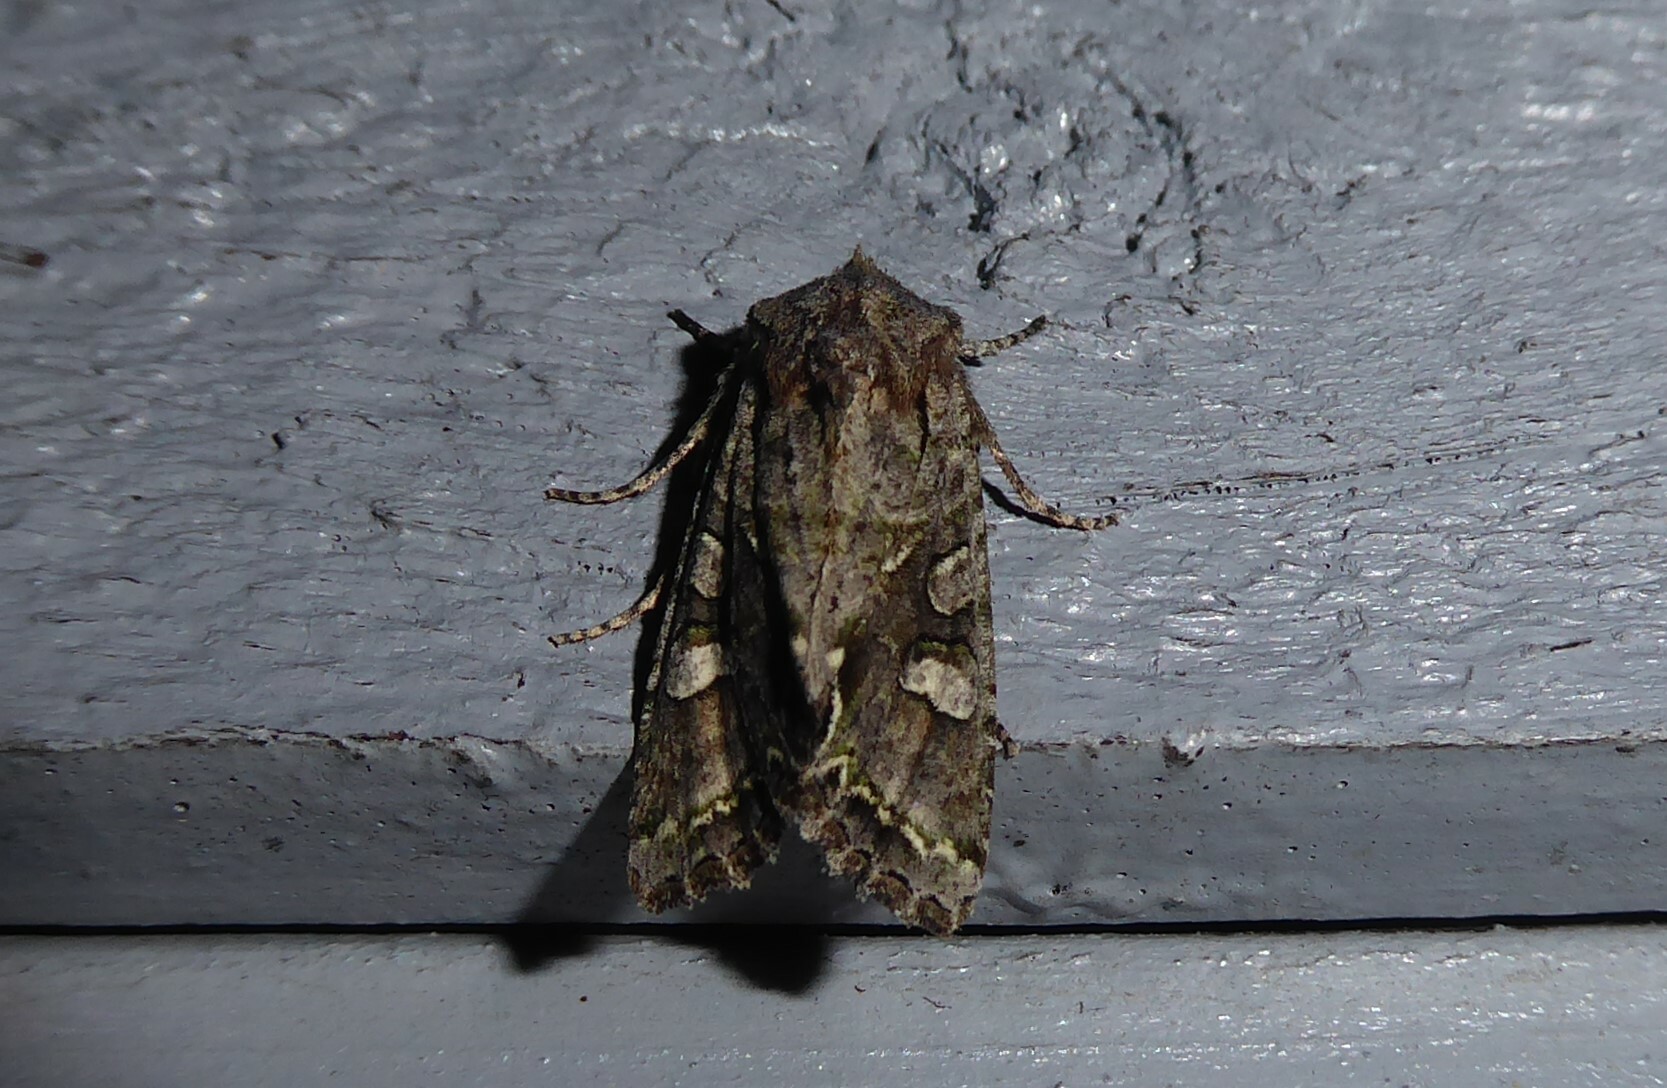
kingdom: Animalia
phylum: Arthropoda
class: Insecta
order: Lepidoptera
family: Noctuidae
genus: Ichneutica
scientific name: Ichneutica insignis
